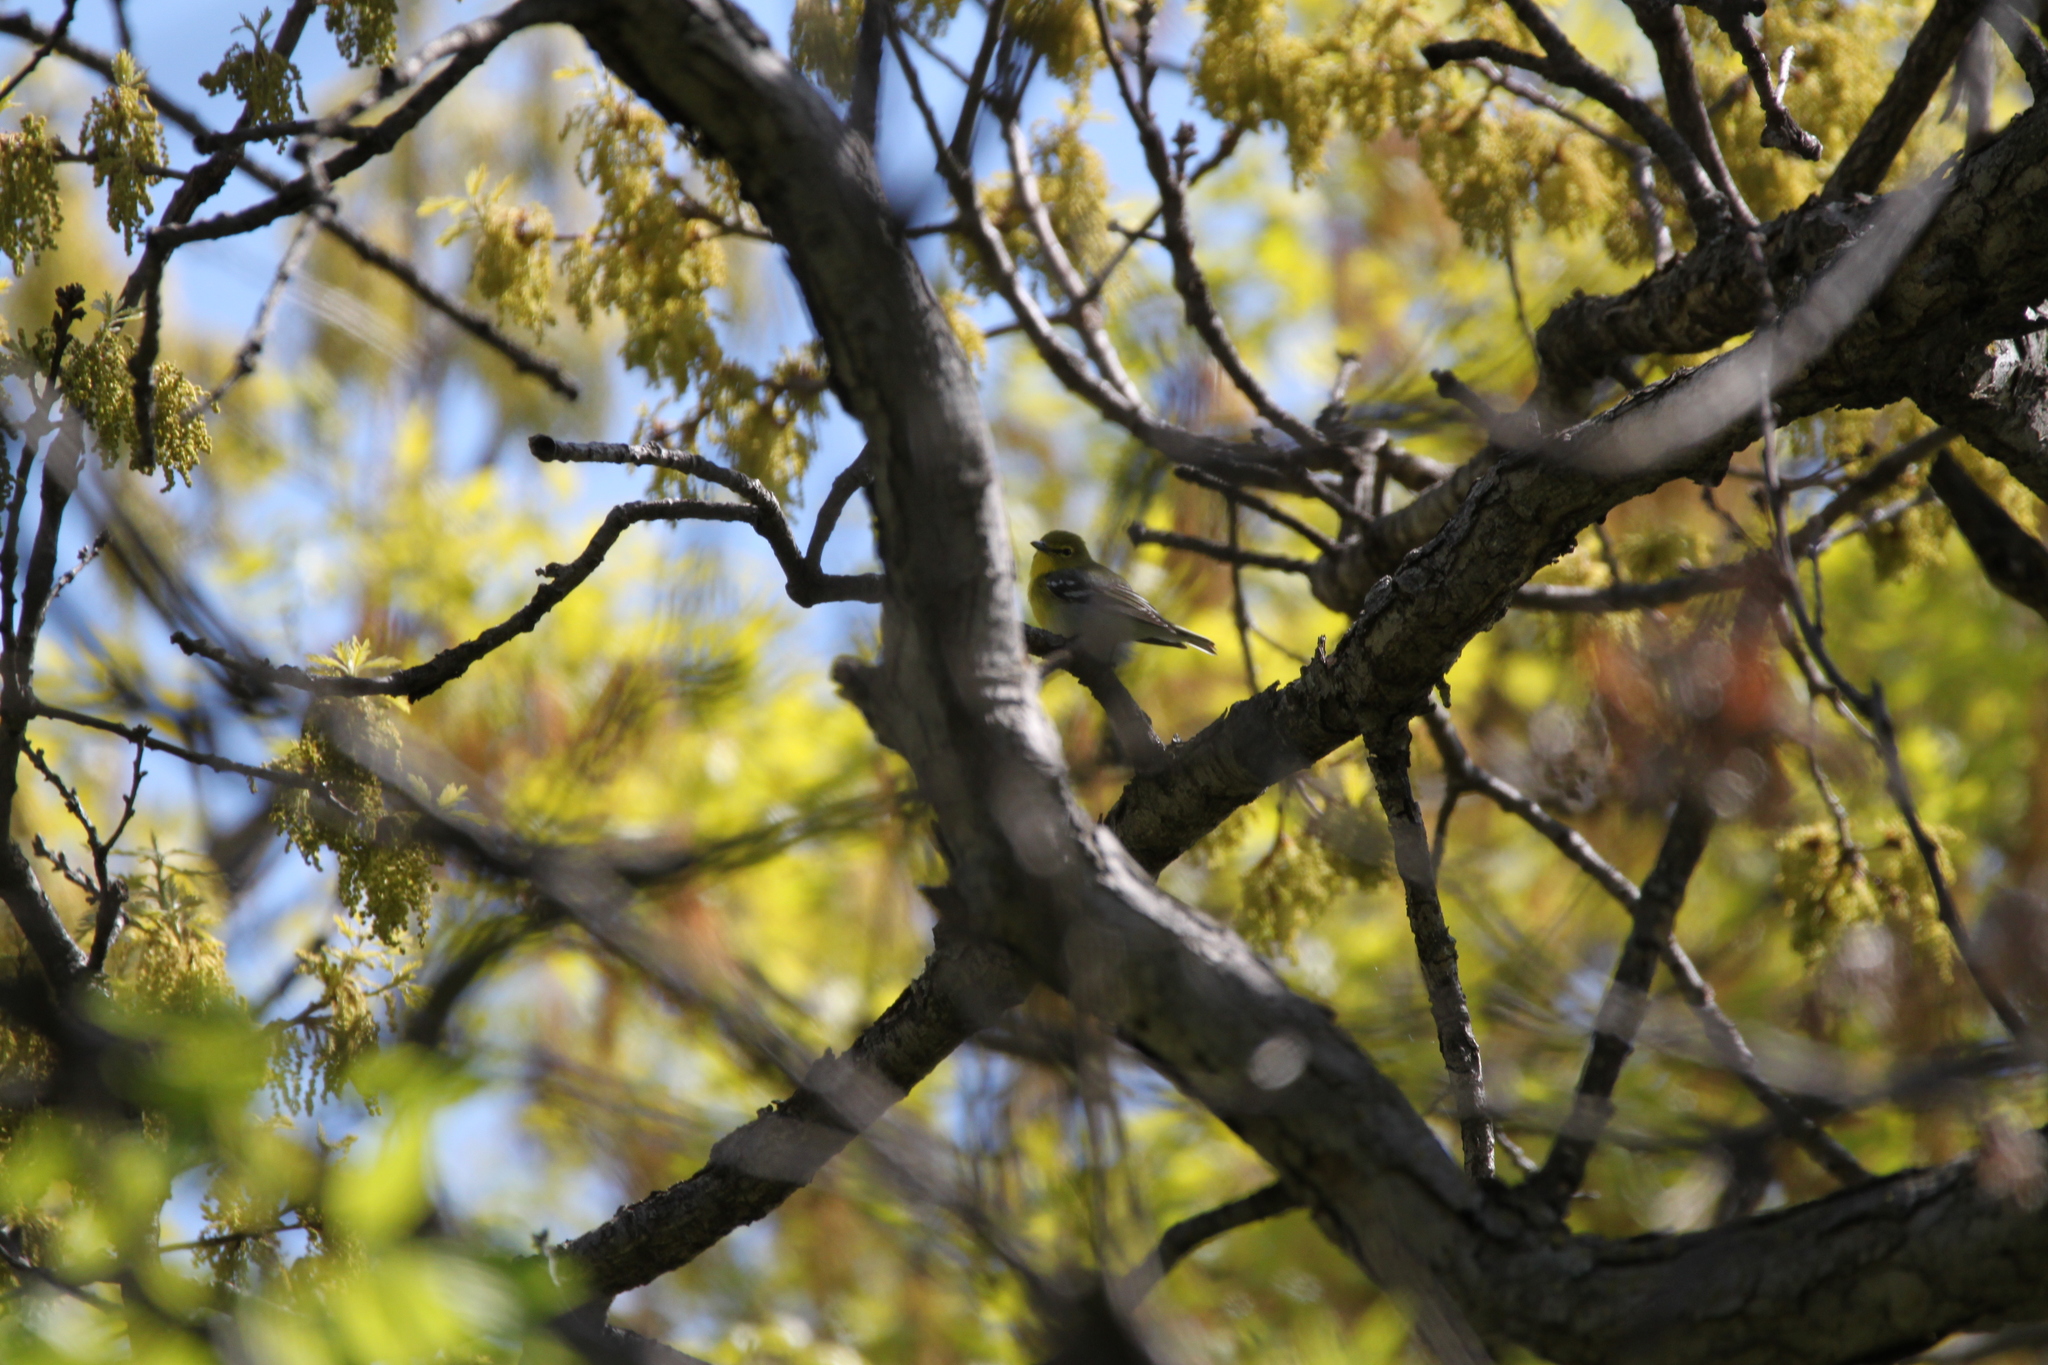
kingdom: Animalia
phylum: Chordata
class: Aves
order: Passeriformes
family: Vireonidae
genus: Vireo
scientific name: Vireo flavifrons
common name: Yellow-throated vireo
